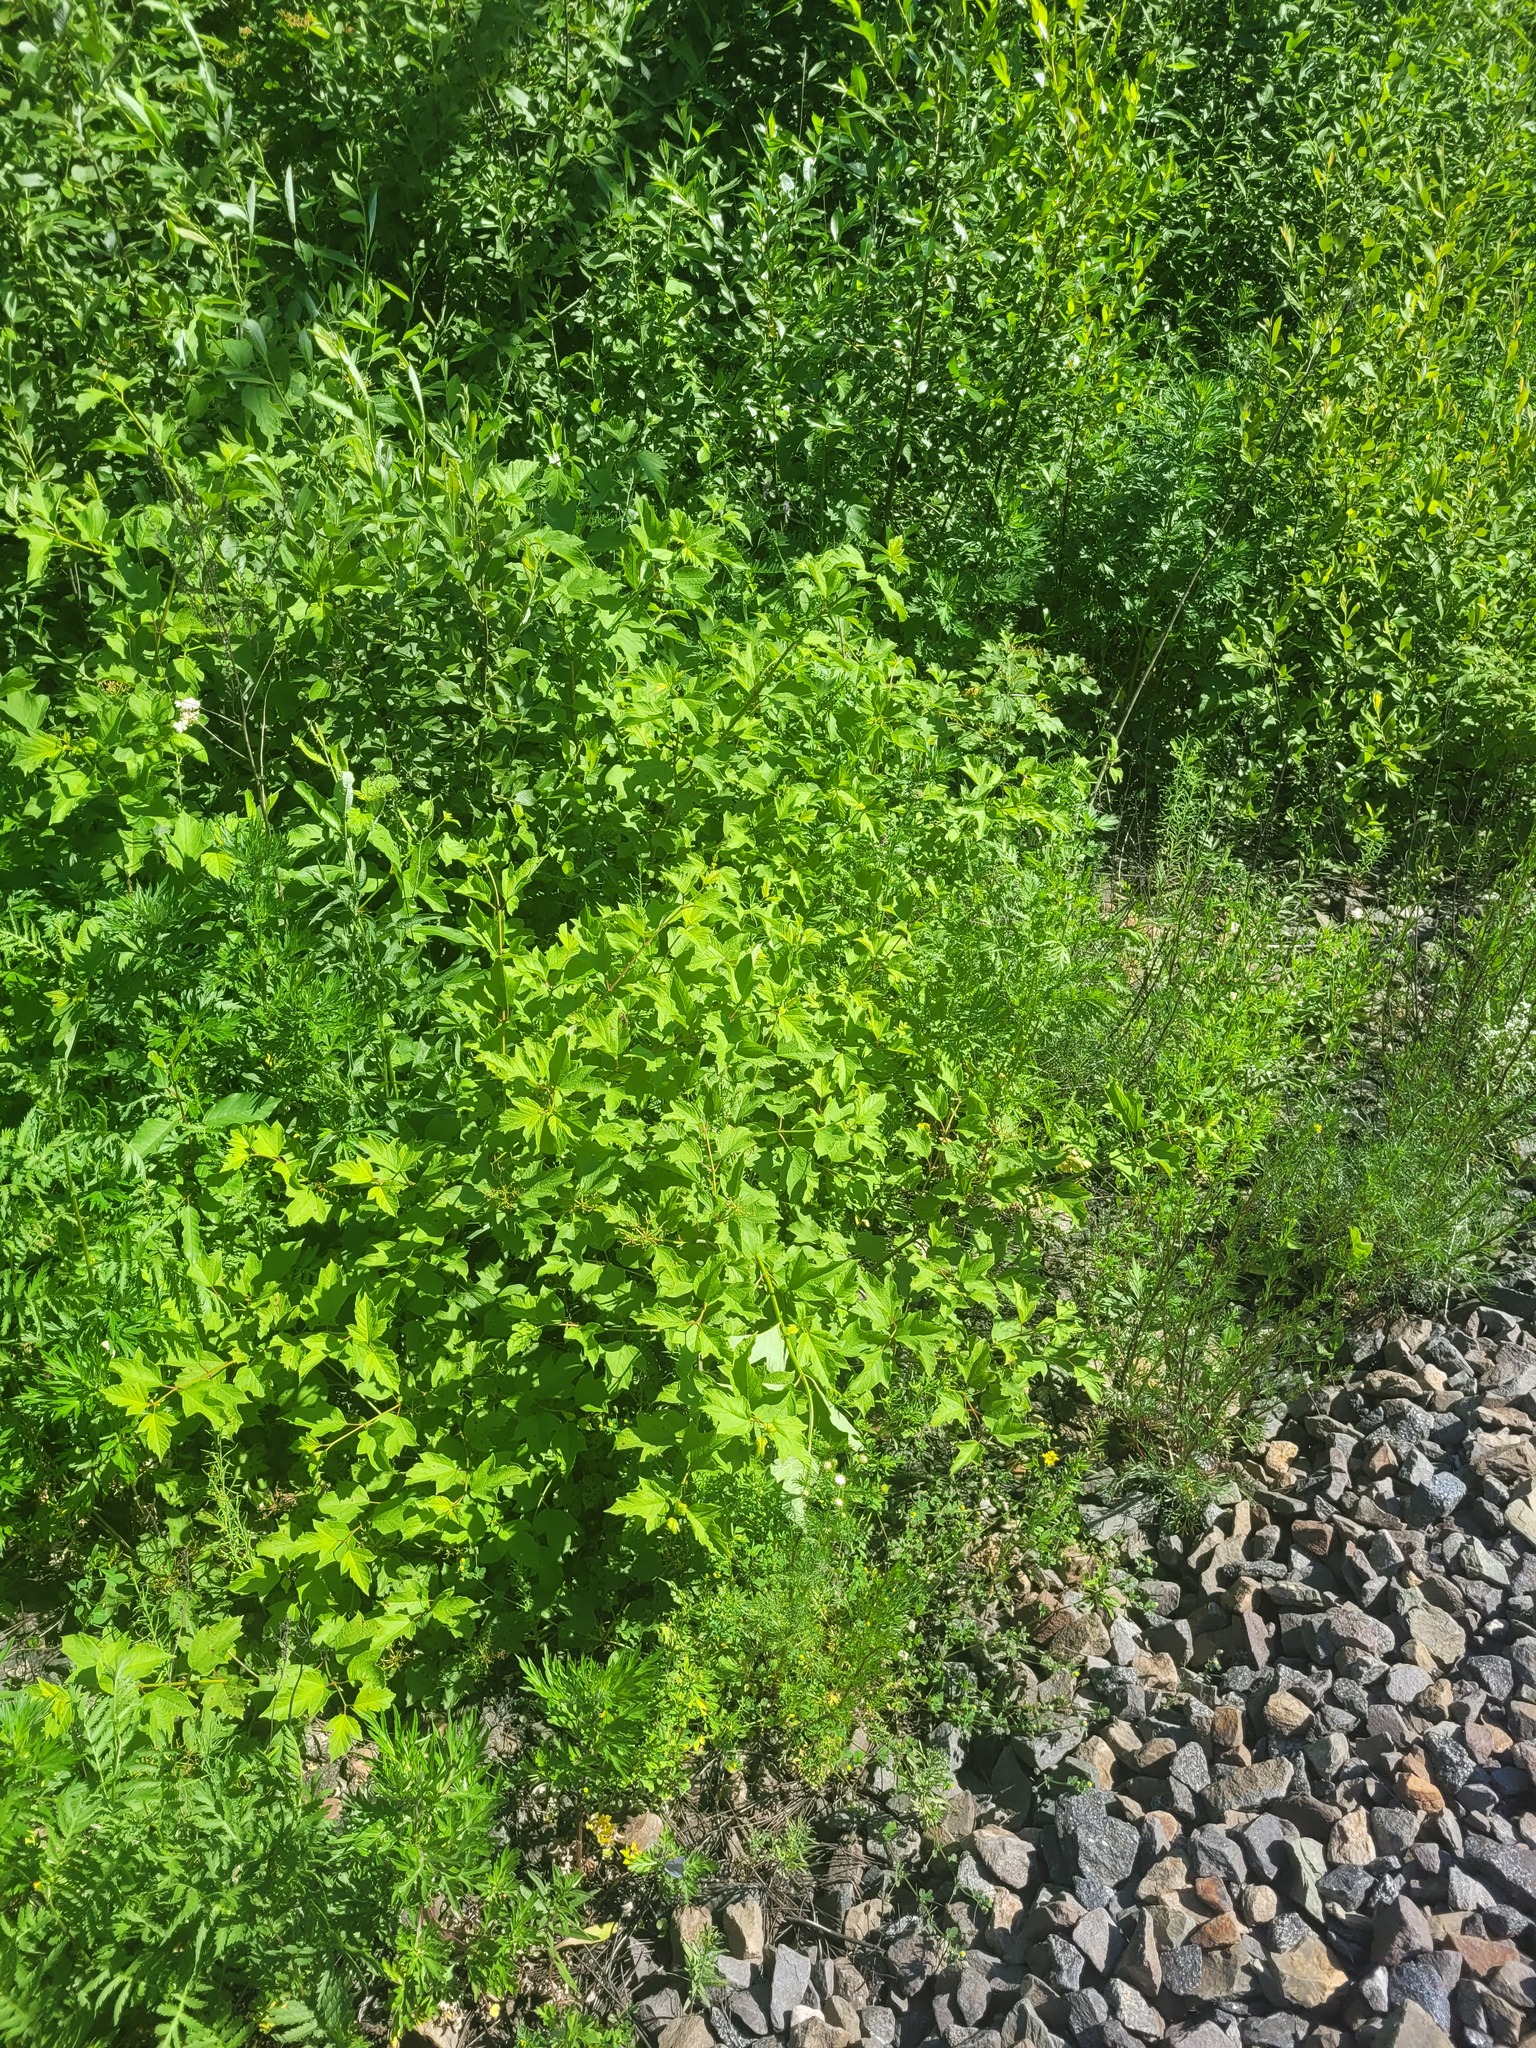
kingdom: Plantae
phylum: Tracheophyta
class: Magnoliopsida
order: Dipsacales
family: Viburnaceae
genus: Viburnum
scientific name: Viburnum opulus
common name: Guelder-rose
